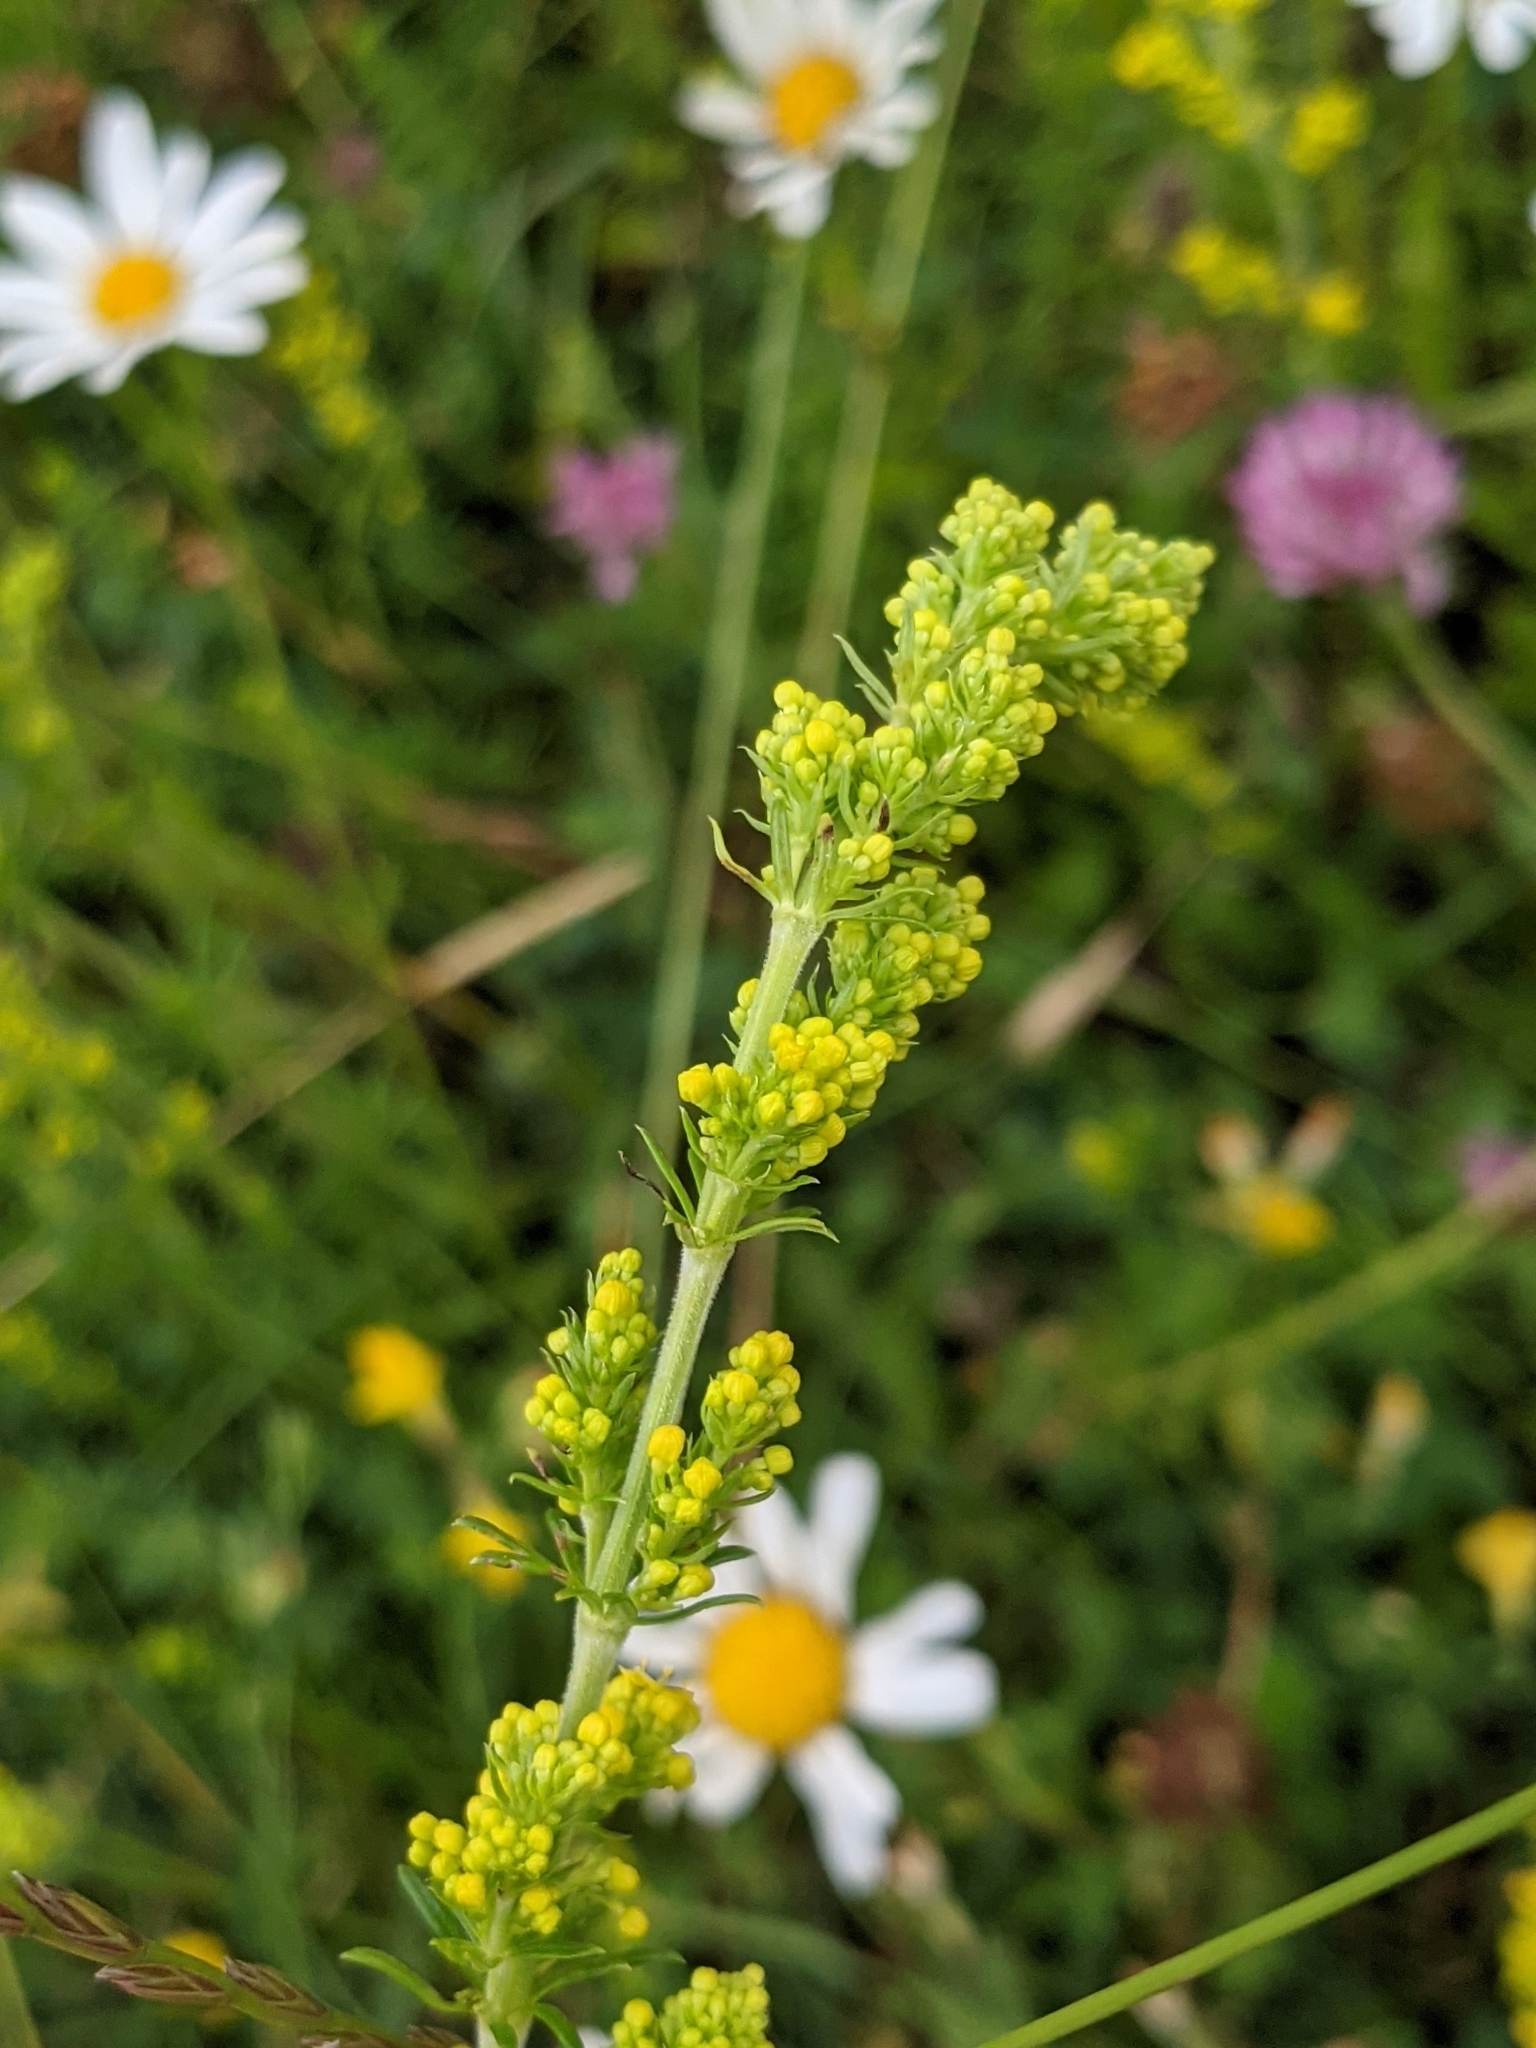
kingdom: Plantae
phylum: Tracheophyta
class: Magnoliopsida
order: Gentianales
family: Rubiaceae
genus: Galium
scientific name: Galium verum
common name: Lady's bedstraw
